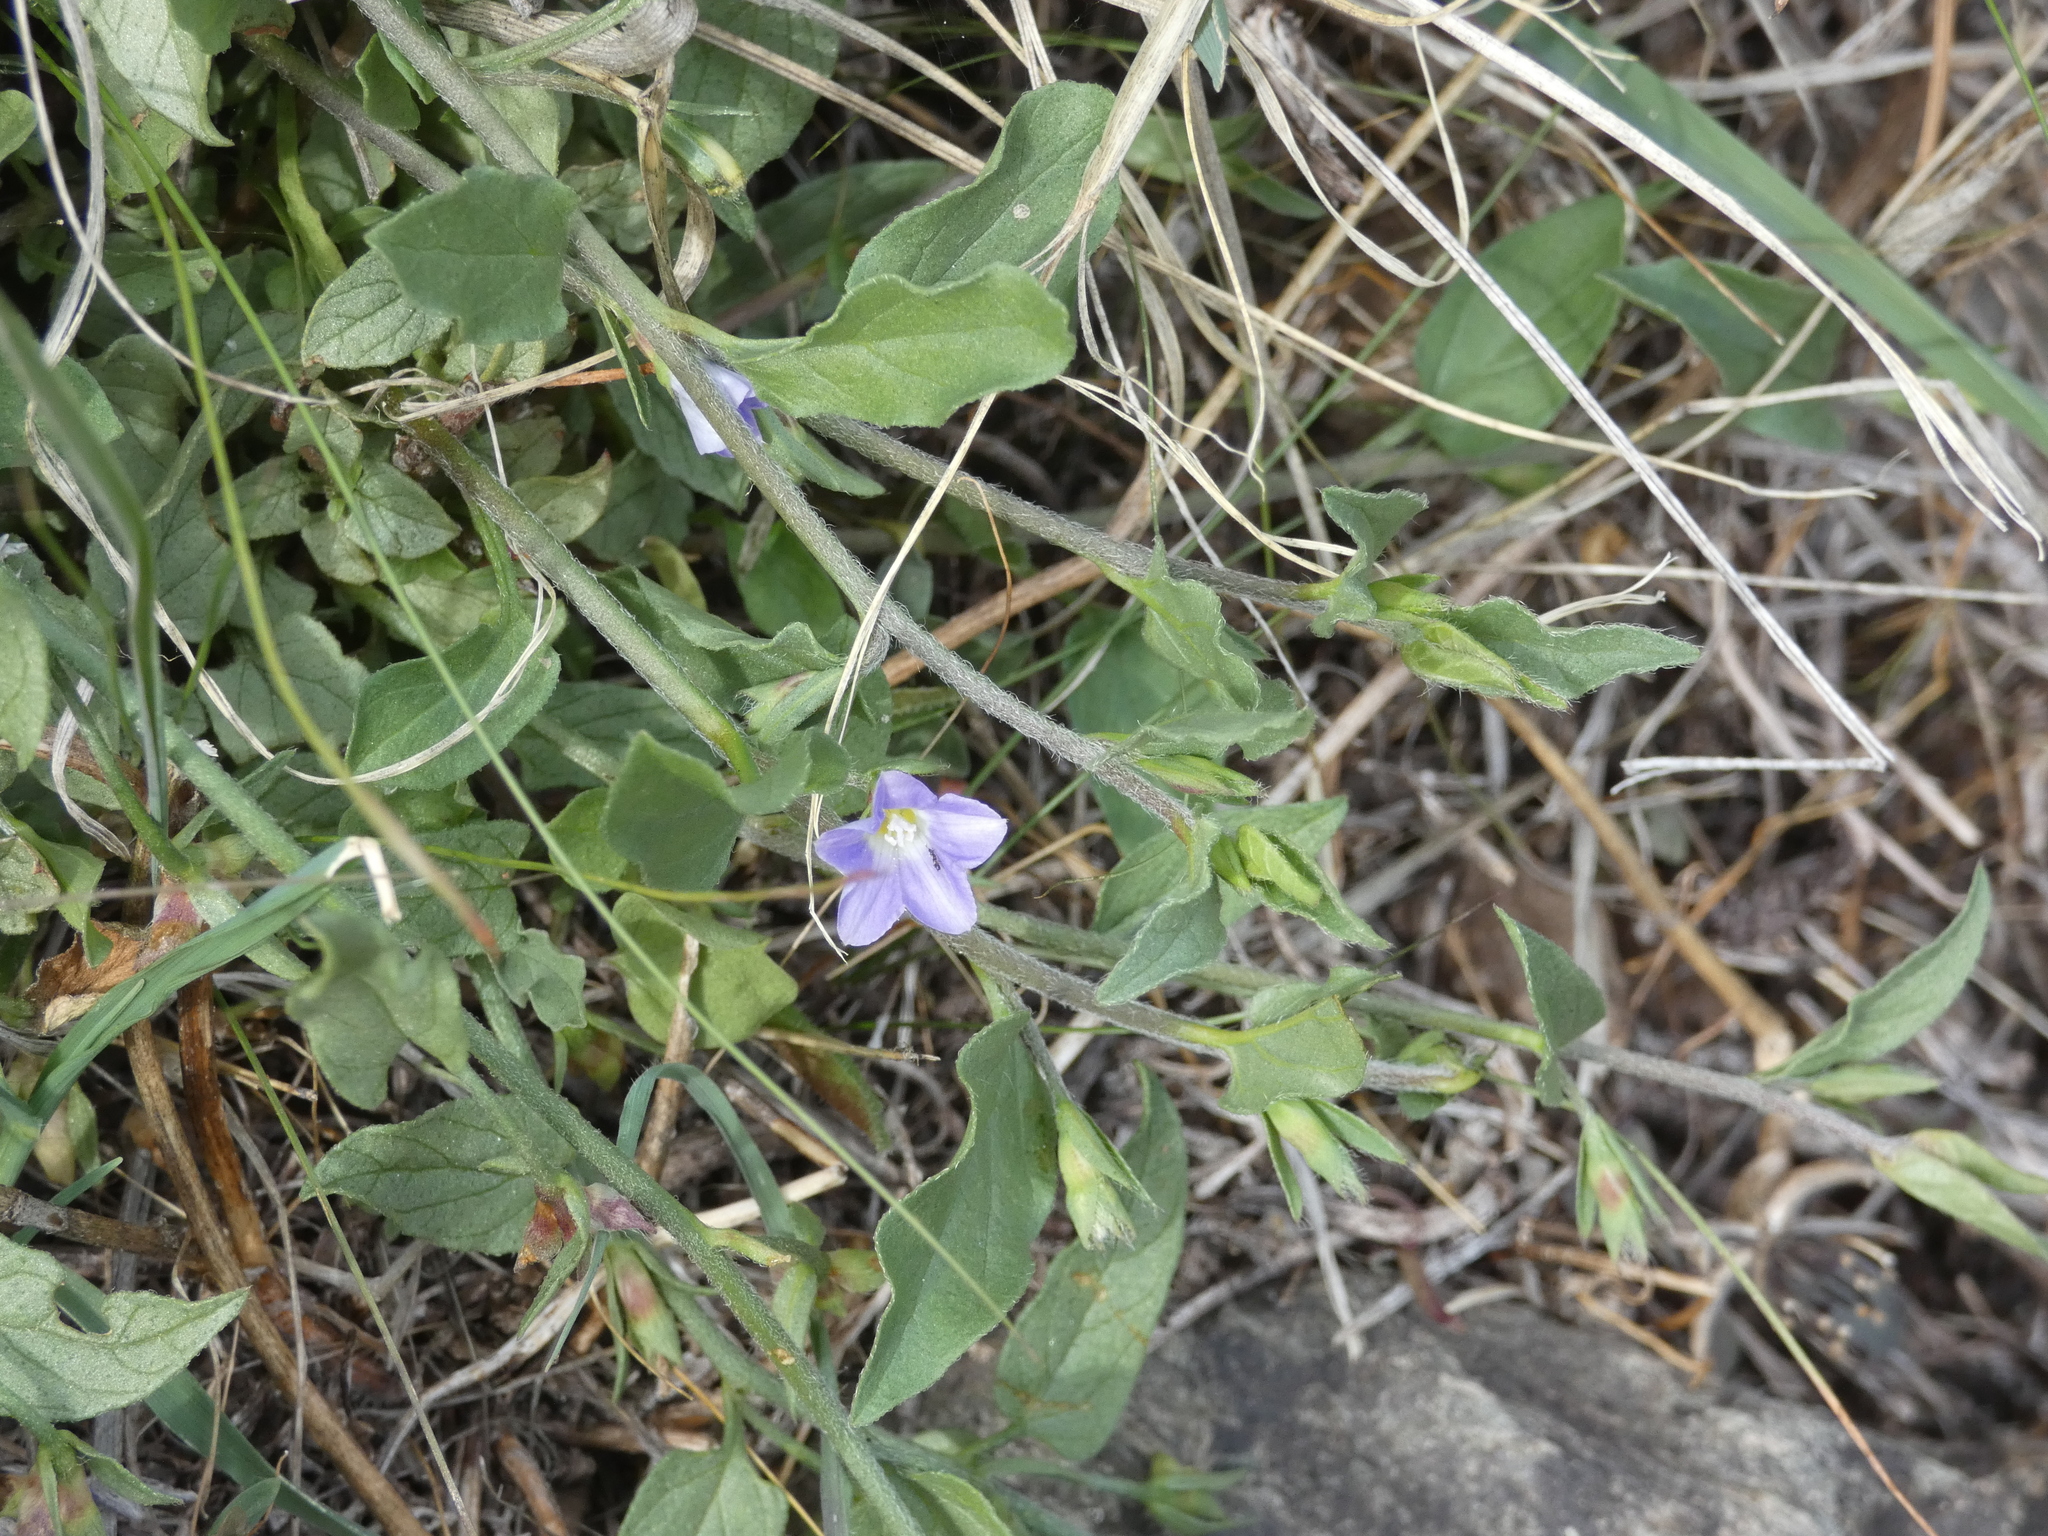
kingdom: Plantae
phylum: Tracheophyta
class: Magnoliopsida
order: Solanales
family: Convolvulaceae
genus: Convolvulus
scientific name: Convolvulus siculus
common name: Small blue-convolvulus
